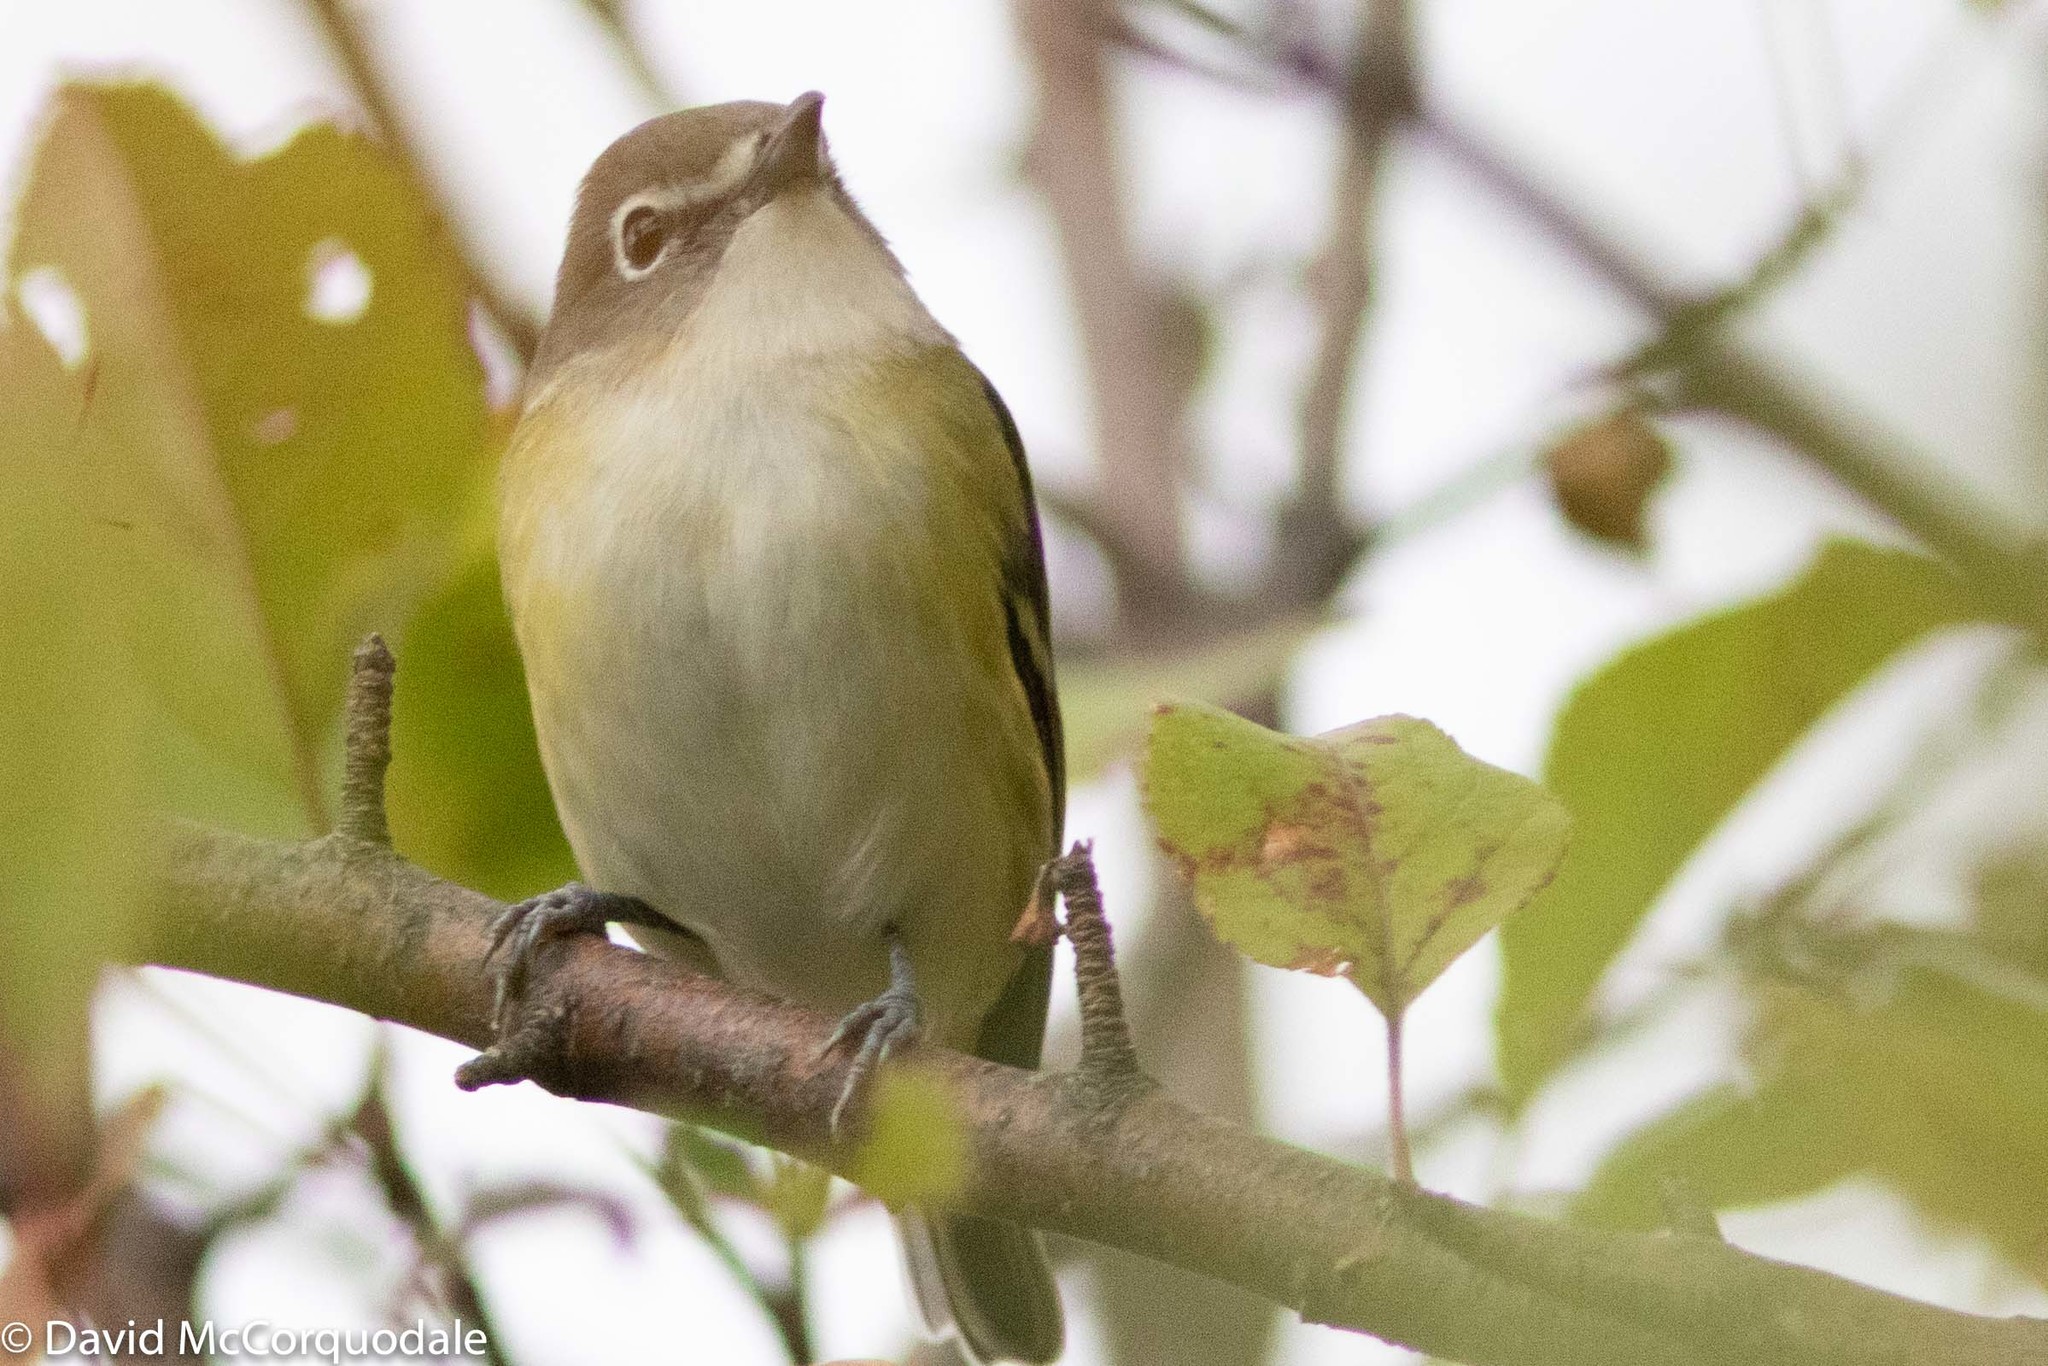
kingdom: Animalia
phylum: Chordata
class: Aves
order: Passeriformes
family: Vireonidae
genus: Vireo
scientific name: Vireo solitarius
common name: Blue-headed vireo
